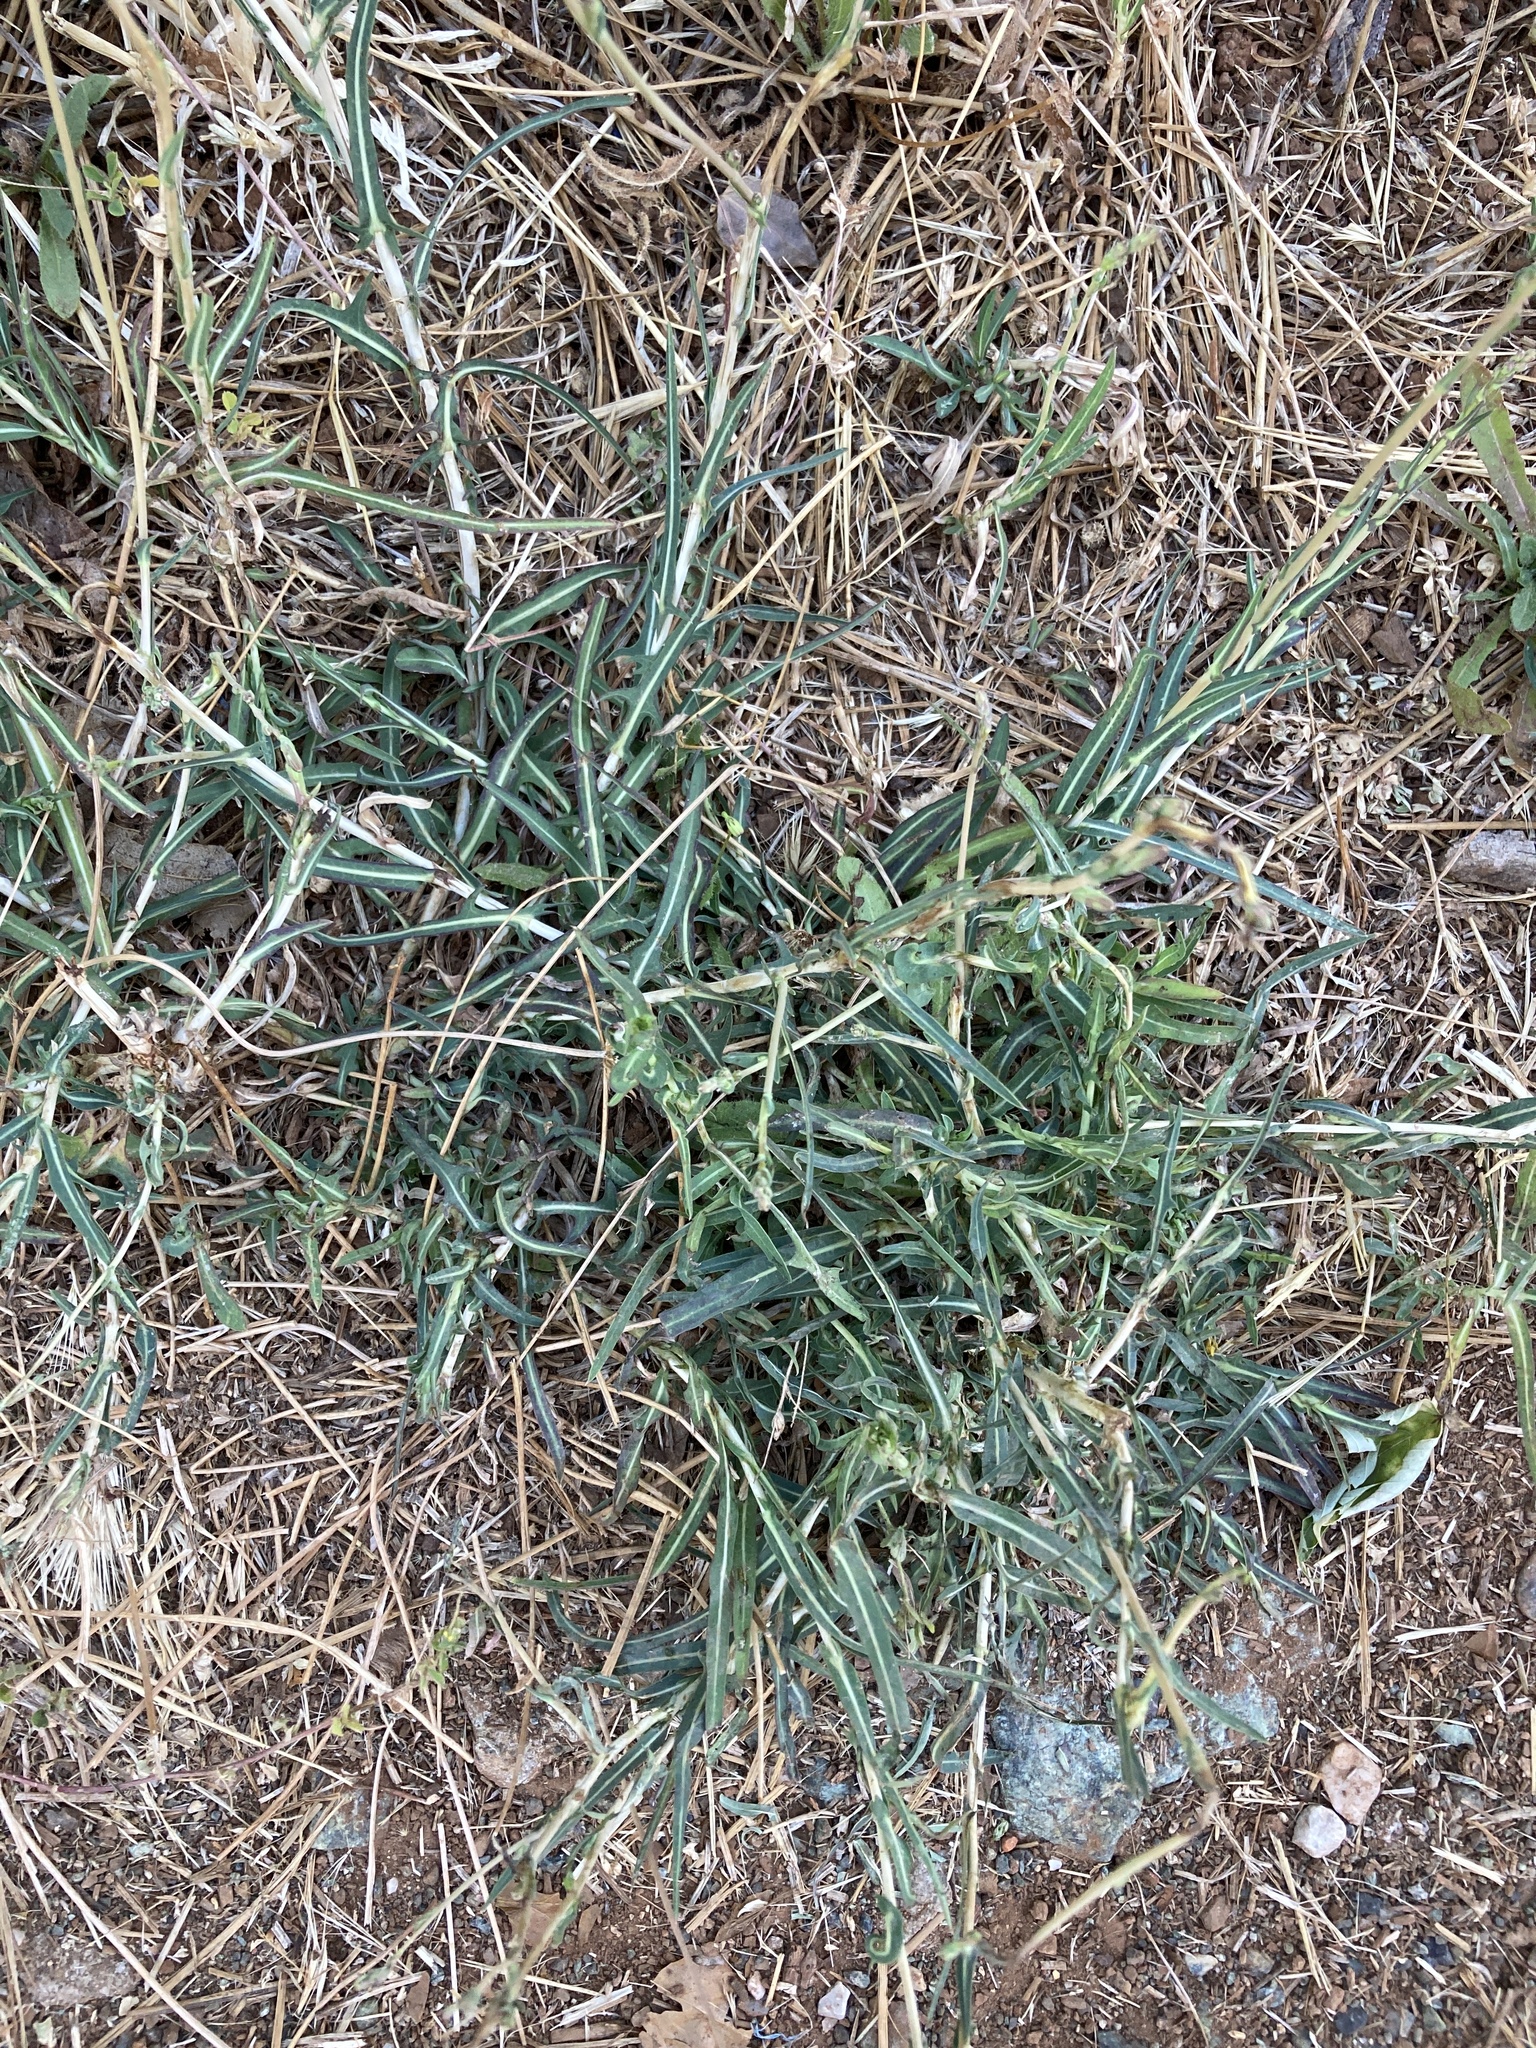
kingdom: Plantae
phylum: Tracheophyta
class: Magnoliopsida
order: Asterales
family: Asteraceae
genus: Lactuca
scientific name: Lactuca saligna
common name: Wild lettuce
